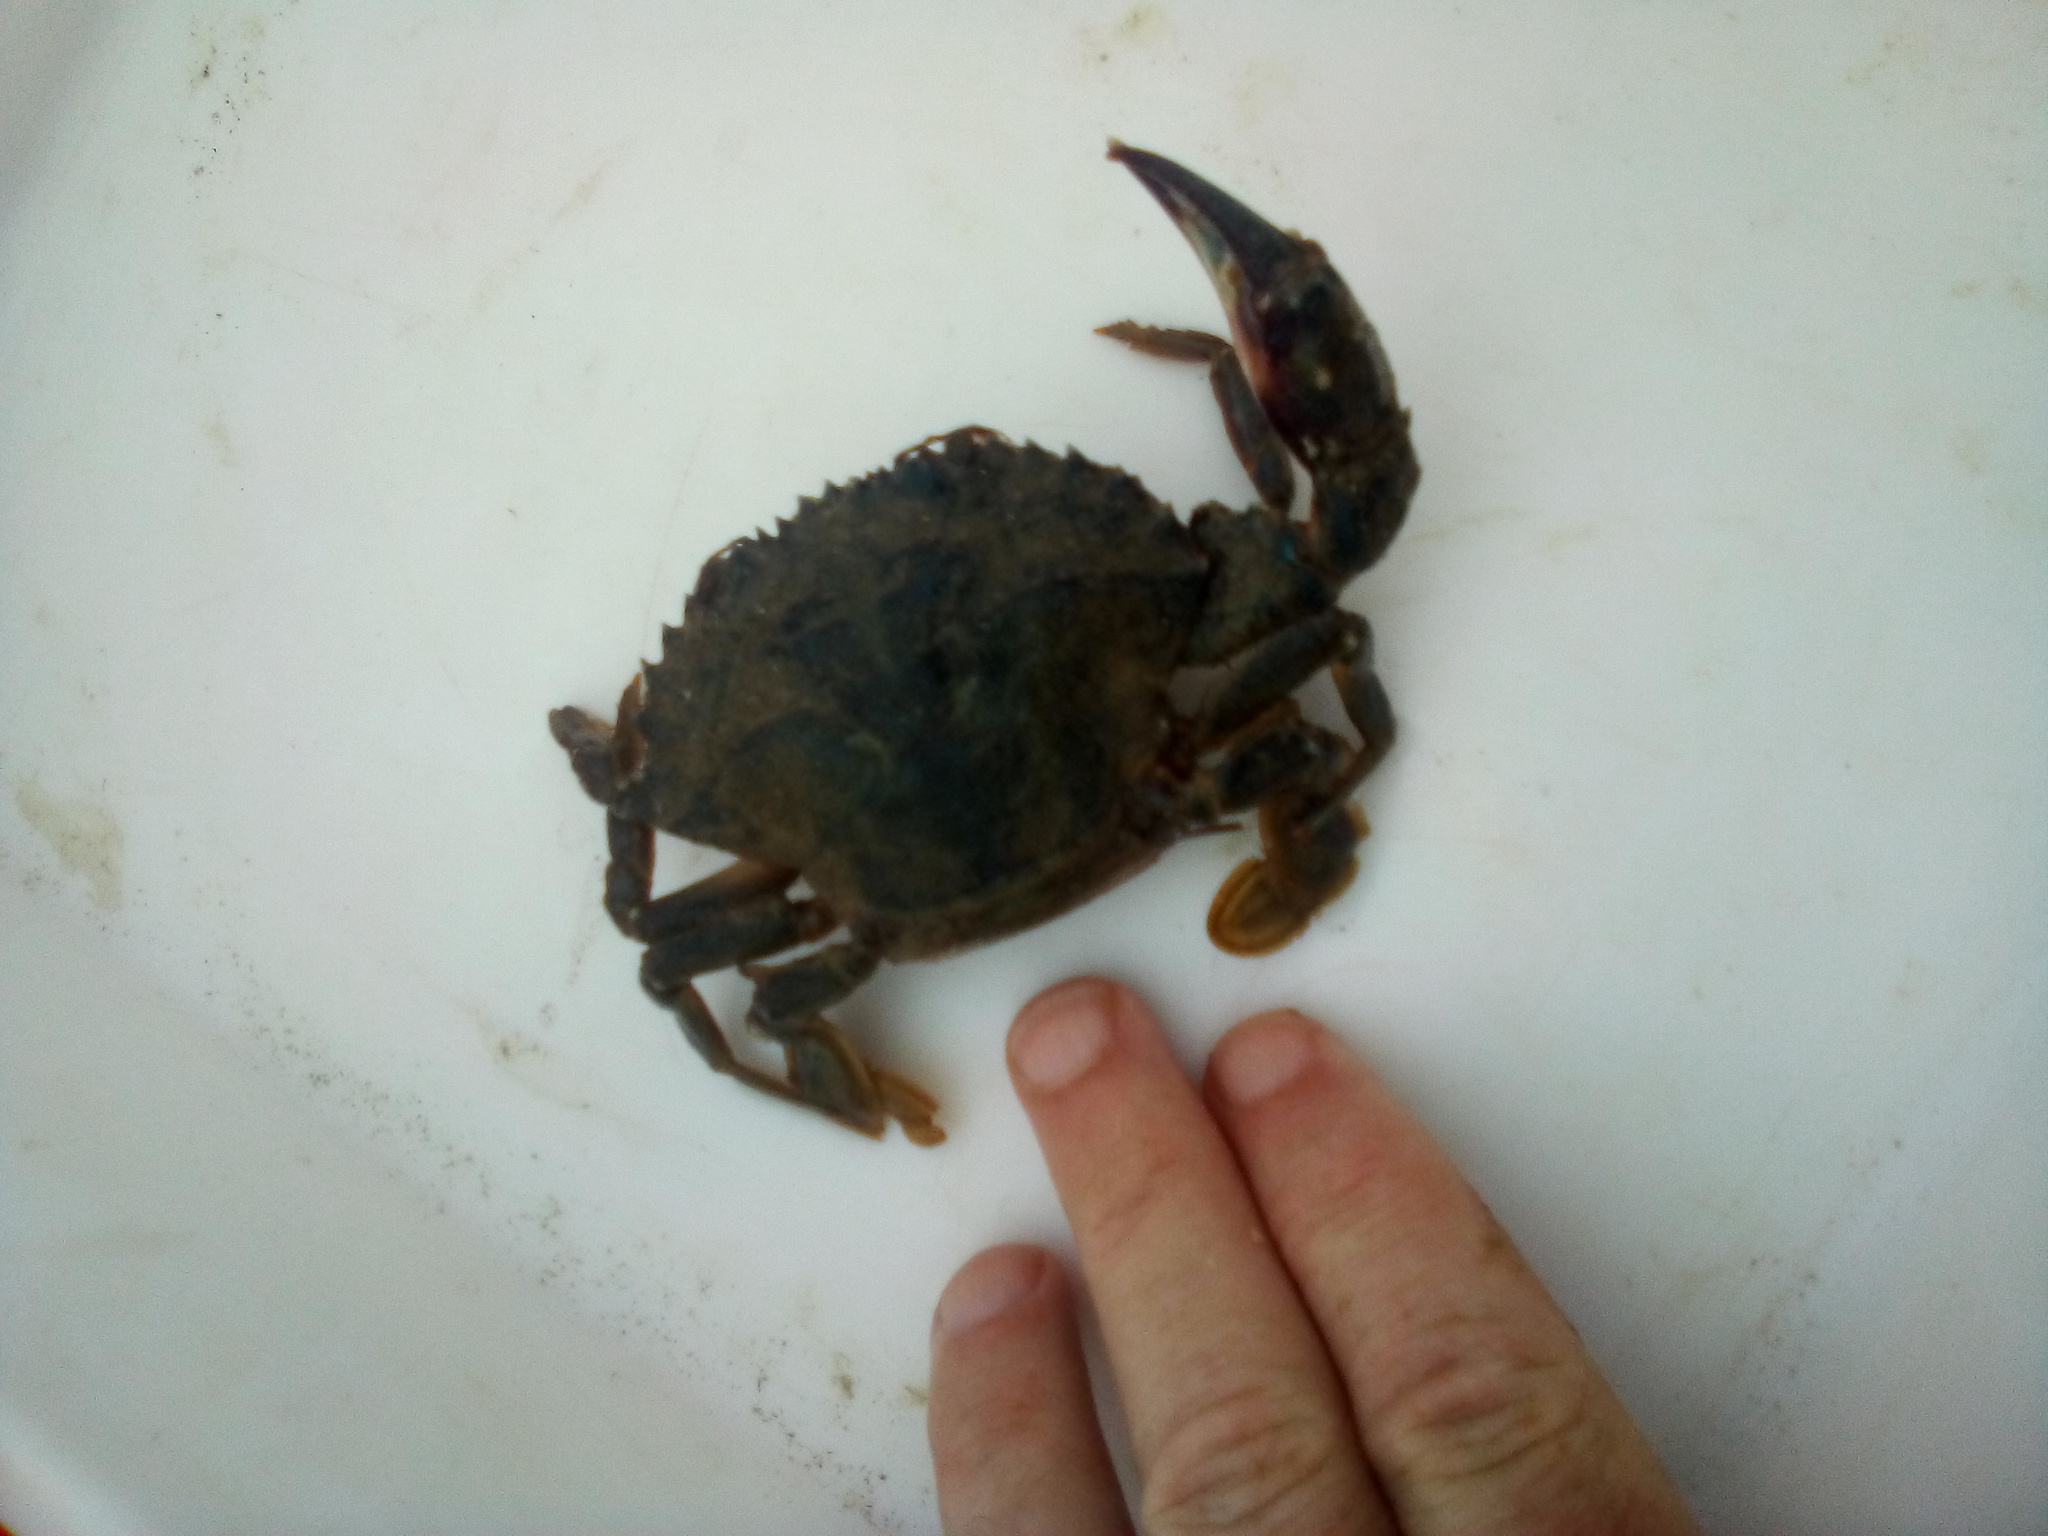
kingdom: Animalia
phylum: Arthropoda
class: Malacostraca
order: Decapoda
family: Portunidae
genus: Charybdis
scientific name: Charybdis japonica
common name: Asian paddle crab
